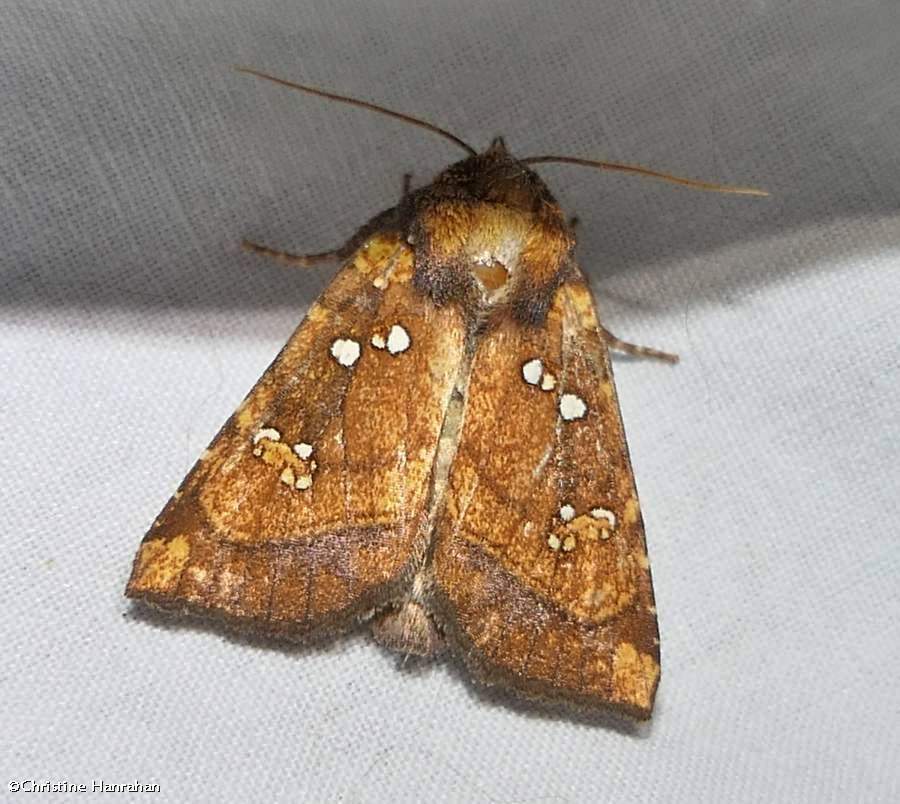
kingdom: Animalia
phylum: Arthropoda
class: Insecta
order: Lepidoptera
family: Noctuidae
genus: Papaipema
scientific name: Papaipema arctivorens
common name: Northern burdock borer moth
